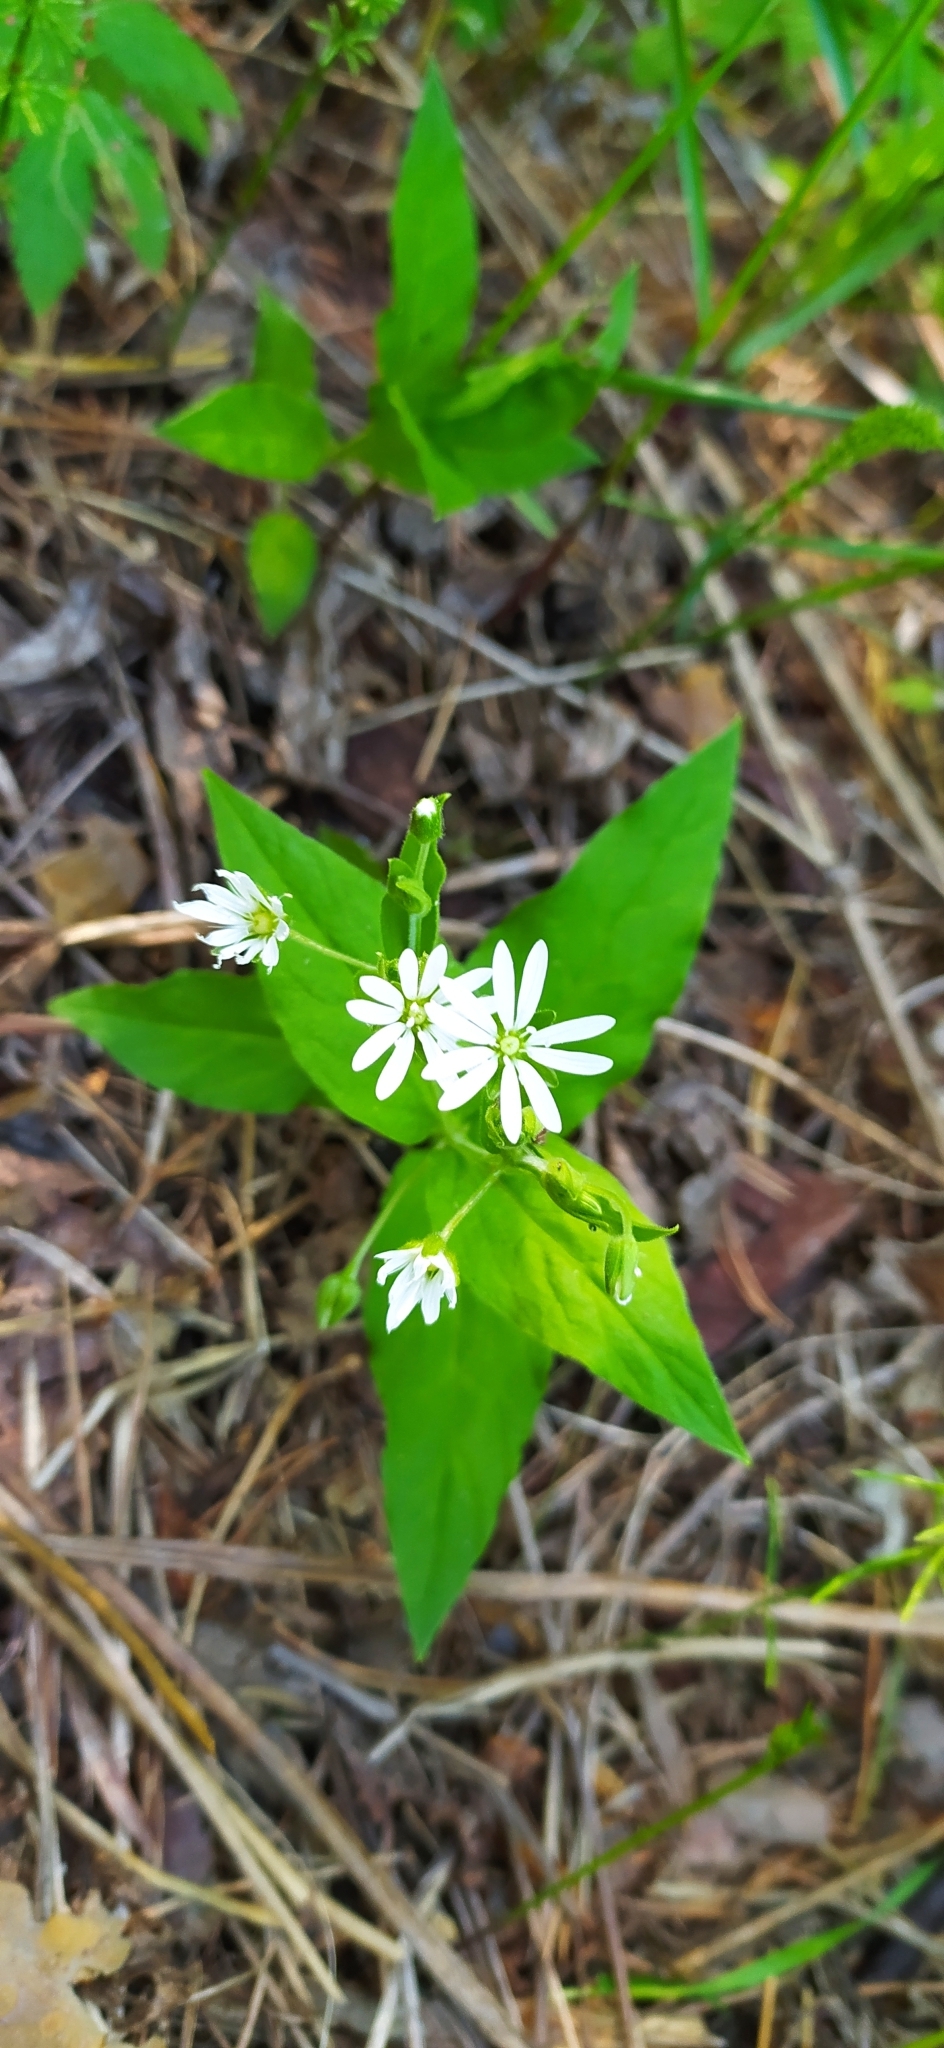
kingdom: Plantae
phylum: Tracheophyta
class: Magnoliopsida
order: Caryophyllales
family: Caryophyllaceae
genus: Stellaria
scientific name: Stellaria bungeana
